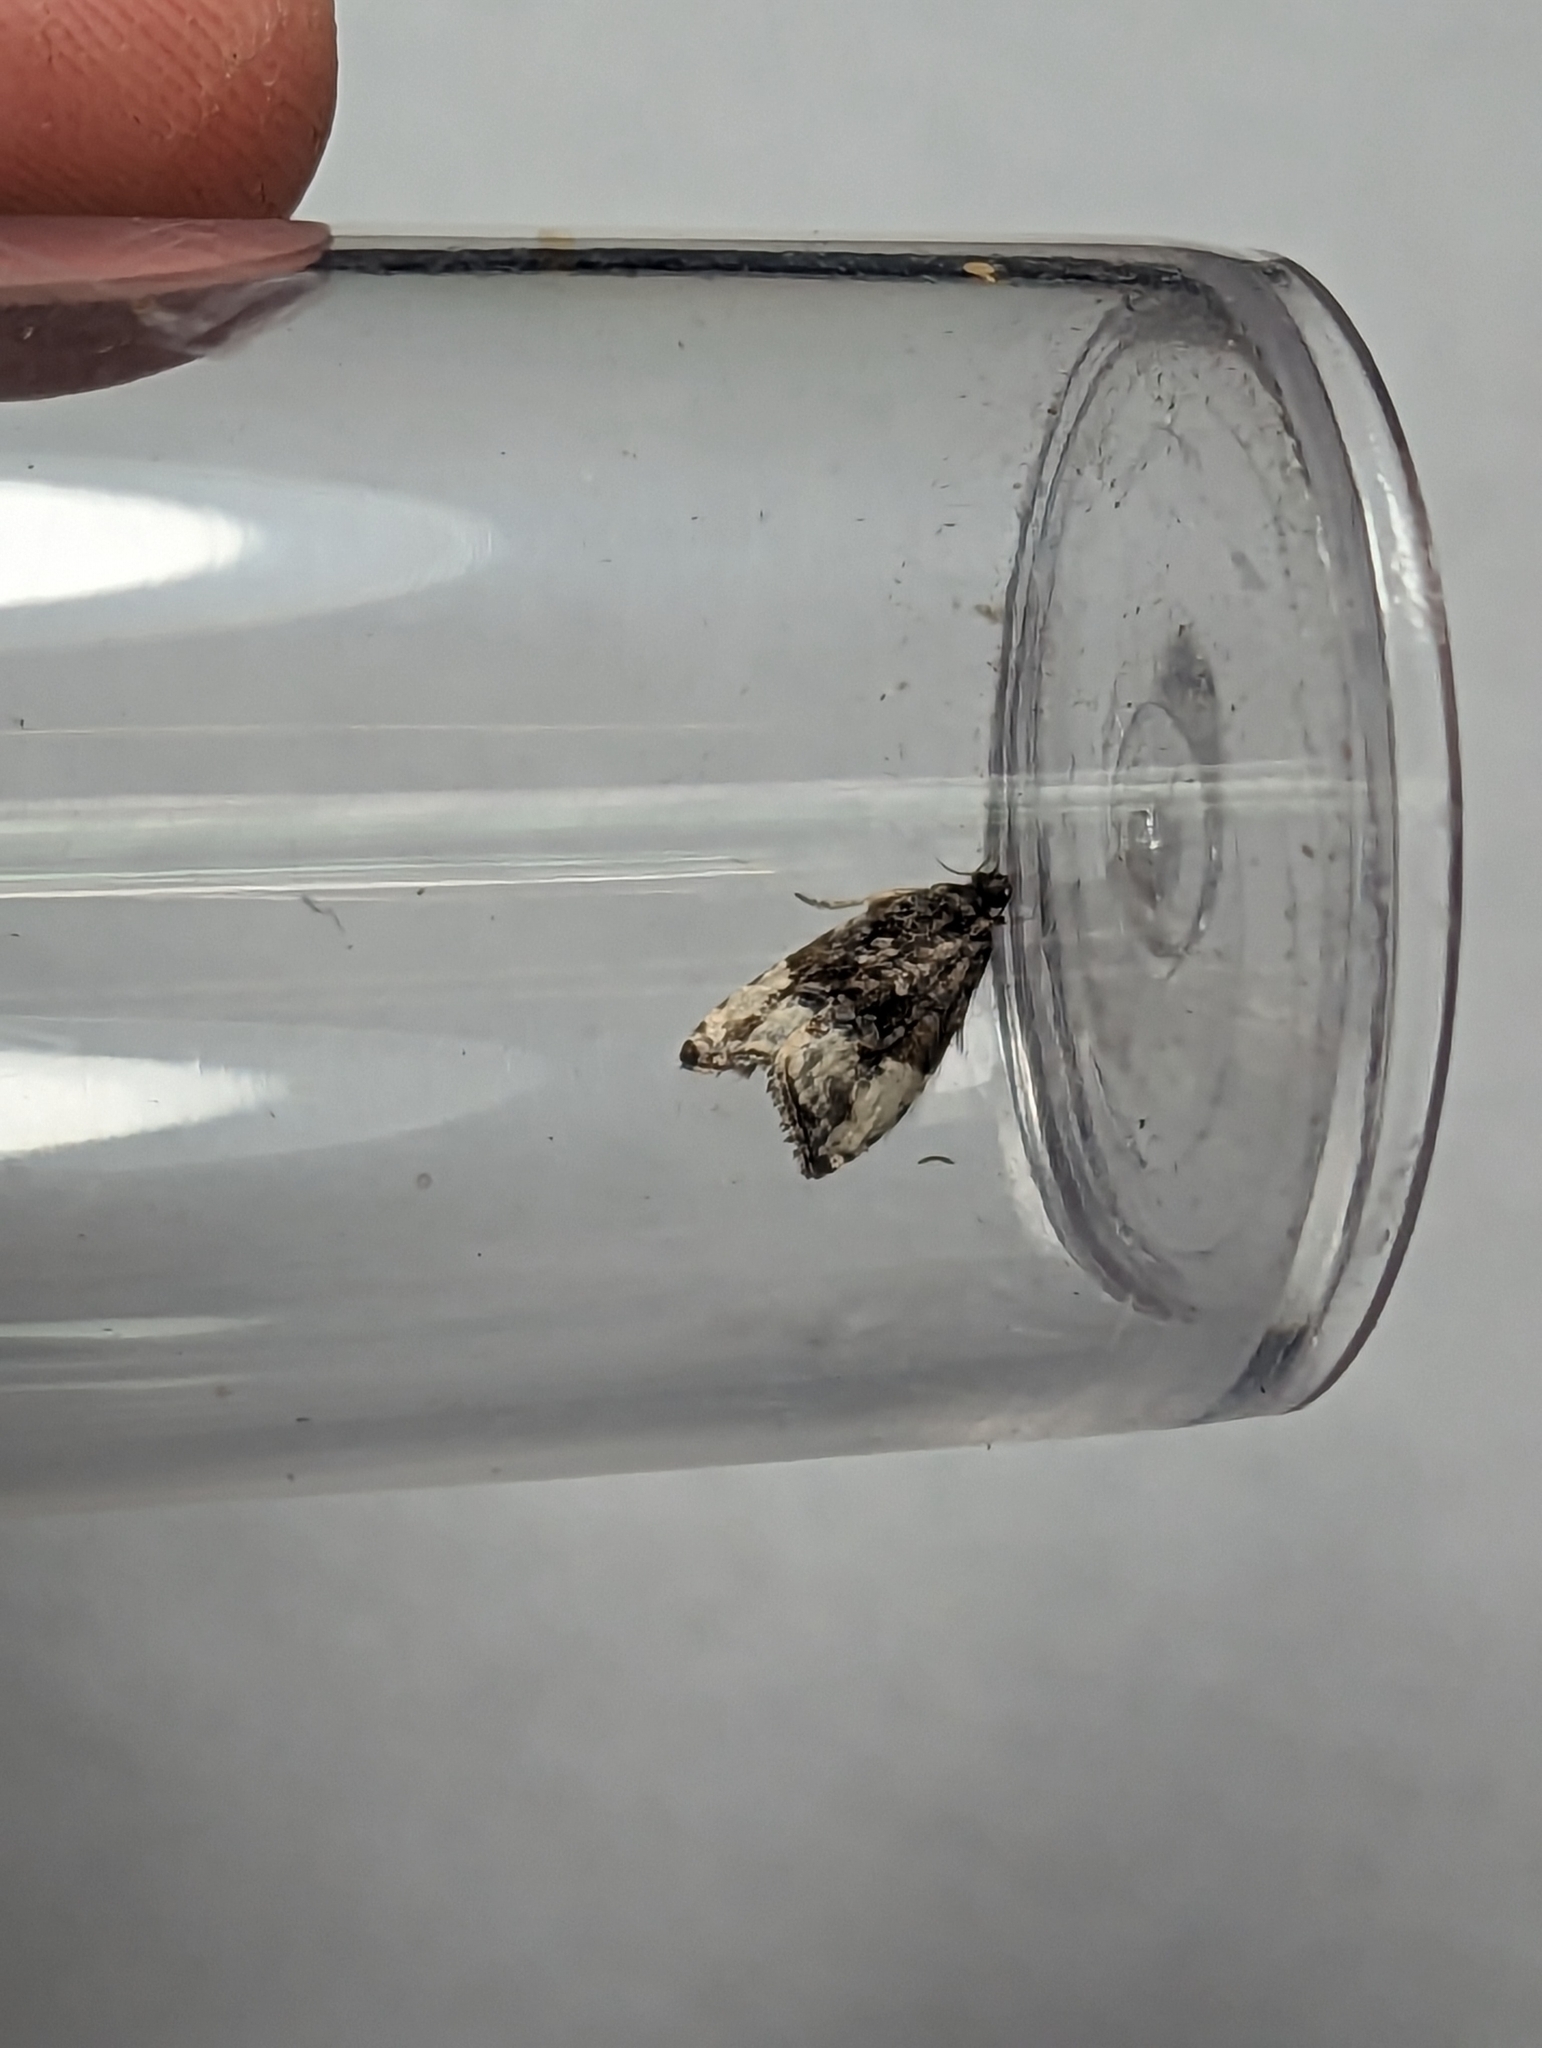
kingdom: Animalia
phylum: Arthropoda
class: Insecta
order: Lepidoptera
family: Tortricidae
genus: Hedya
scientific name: Hedya pruniana
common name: Plum tortrix
